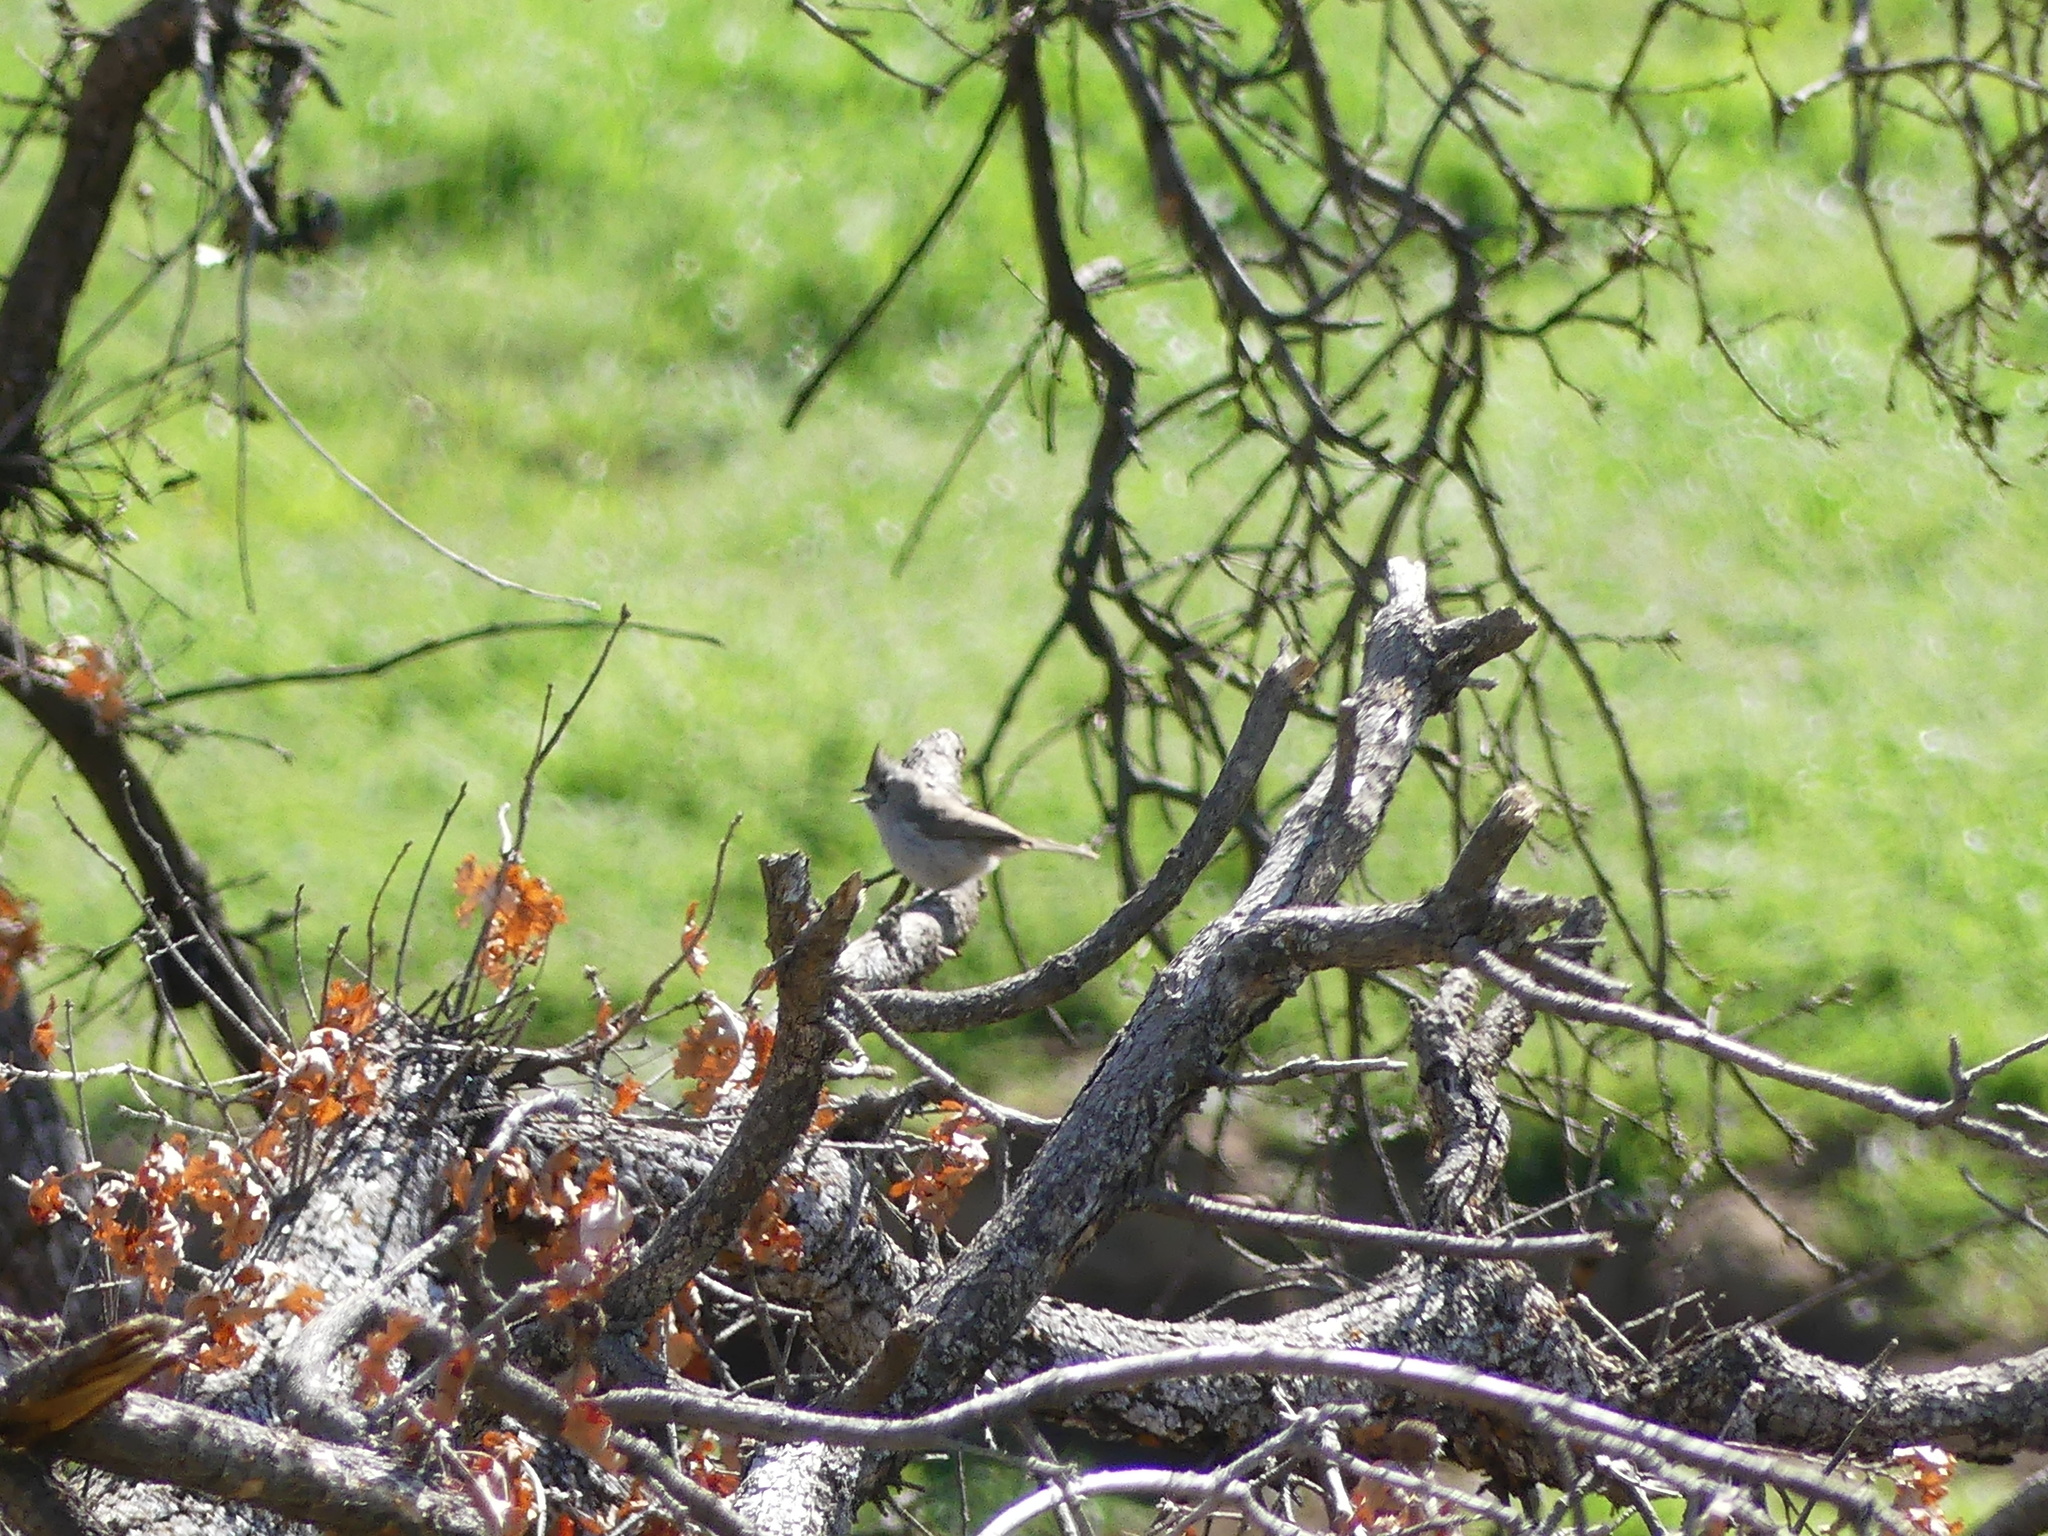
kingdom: Animalia
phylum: Chordata
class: Aves
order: Passeriformes
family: Paridae
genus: Baeolophus
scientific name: Baeolophus inornatus
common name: Oak titmouse
